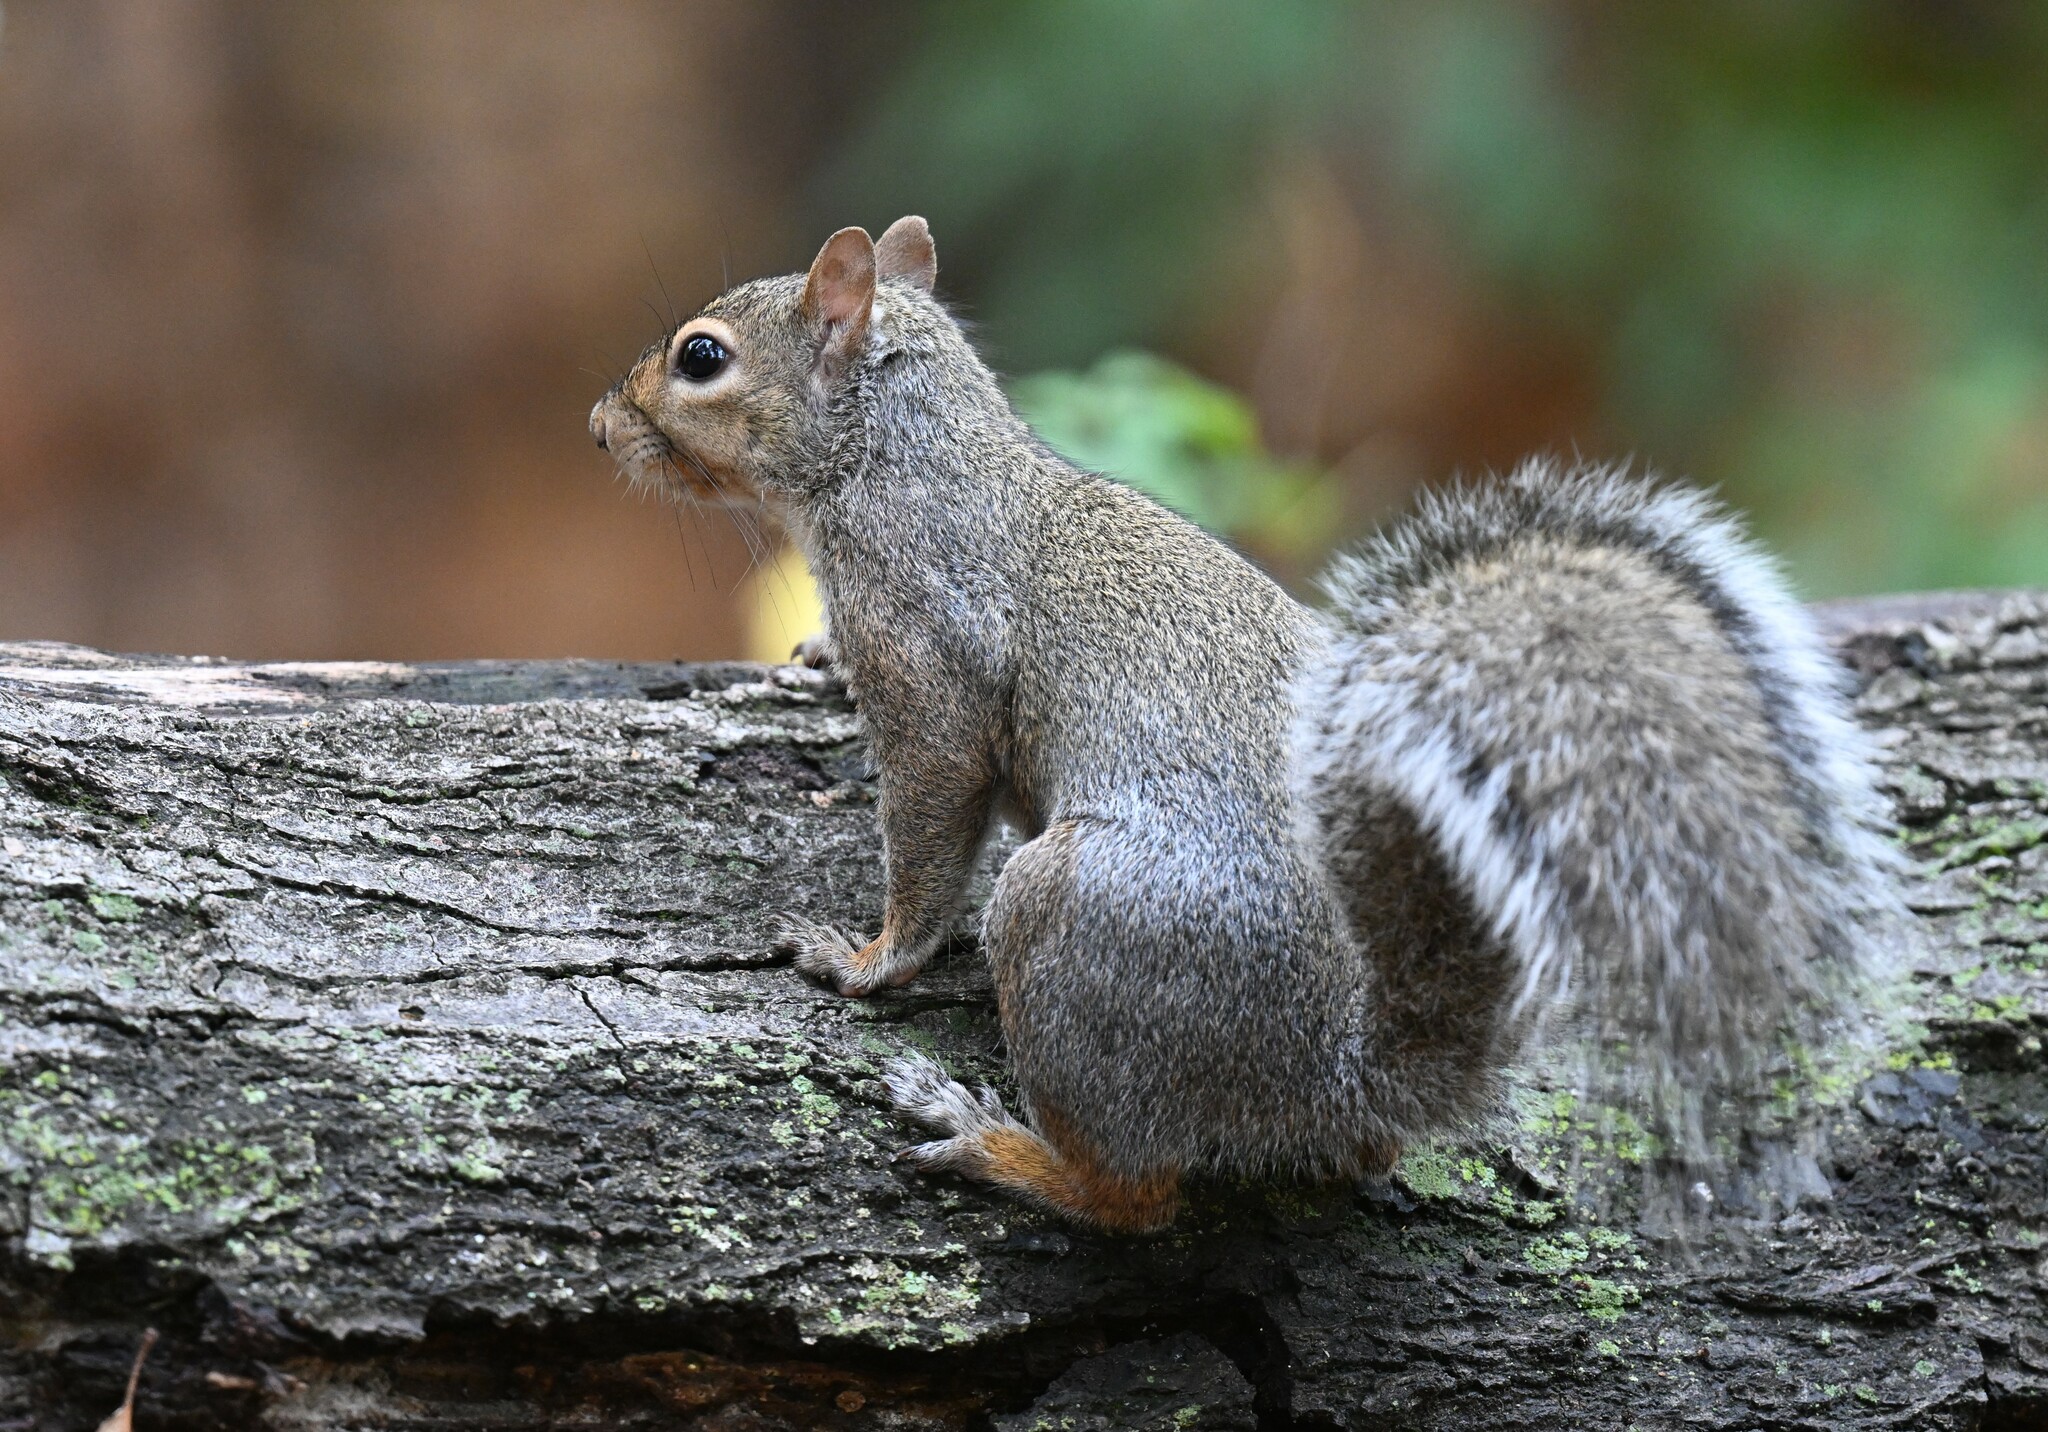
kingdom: Animalia
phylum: Chordata
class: Mammalia
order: Rodentia
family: Sciuridae
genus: Sciurus
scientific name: Sciurus carolinensis
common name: Eastern gray squirrel
